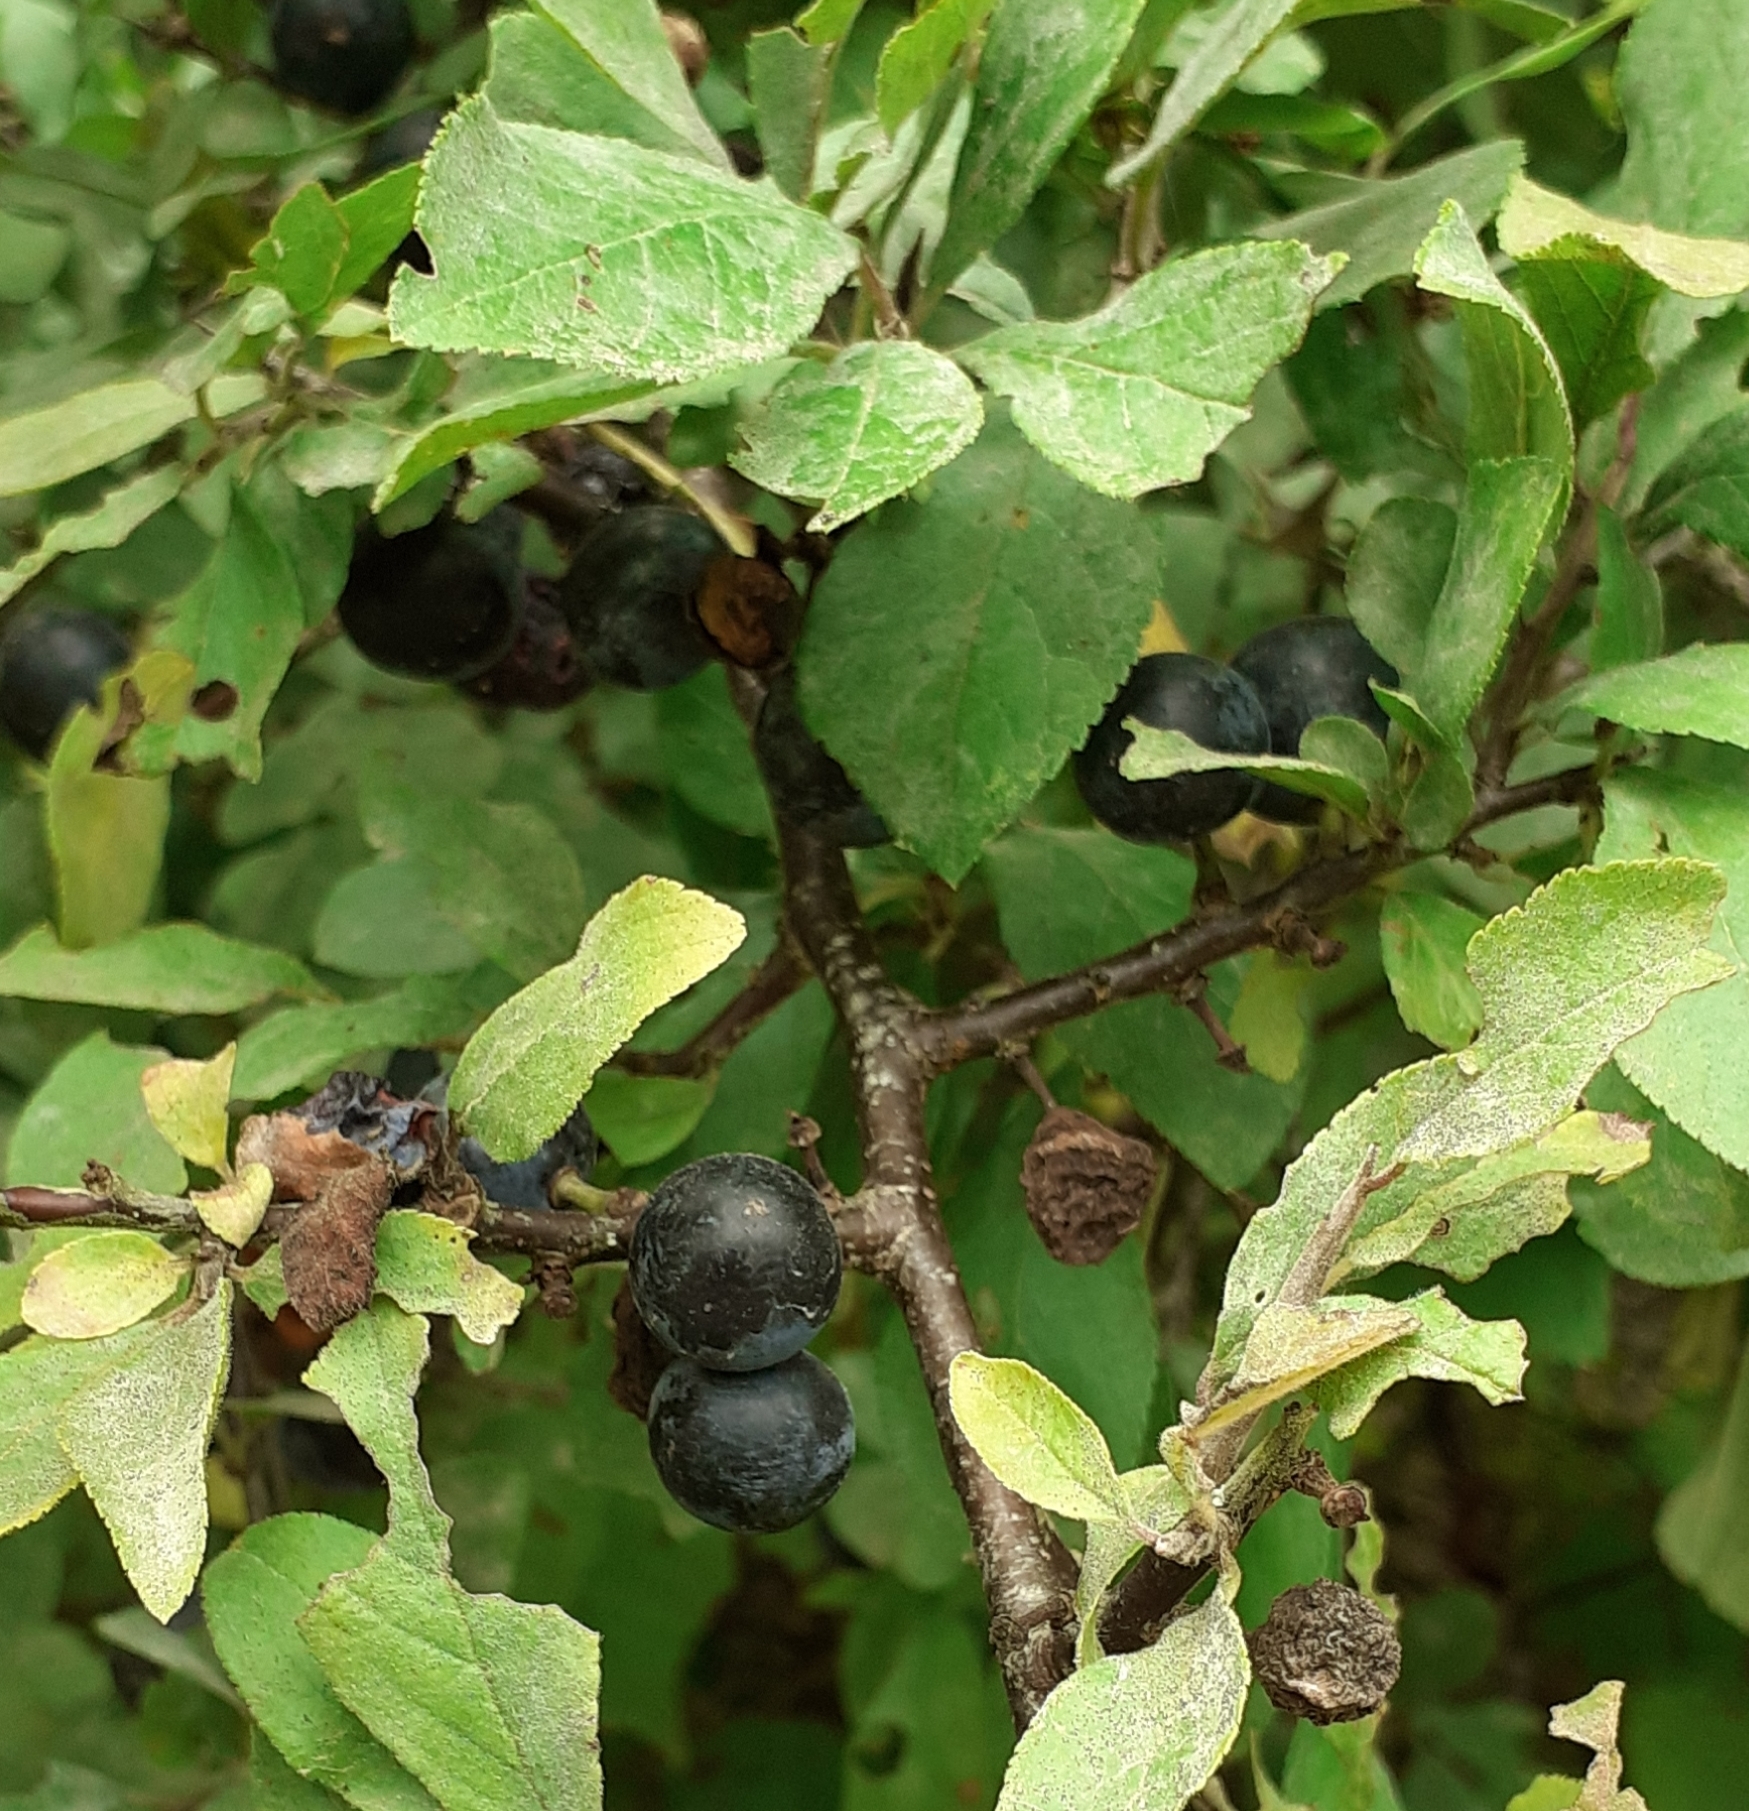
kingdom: Plantae
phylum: Tracheophyta
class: Magnoliopsida
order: Rosales
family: Rosaceae
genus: Prunus
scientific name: Prunus spinosa
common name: Blackthorn
